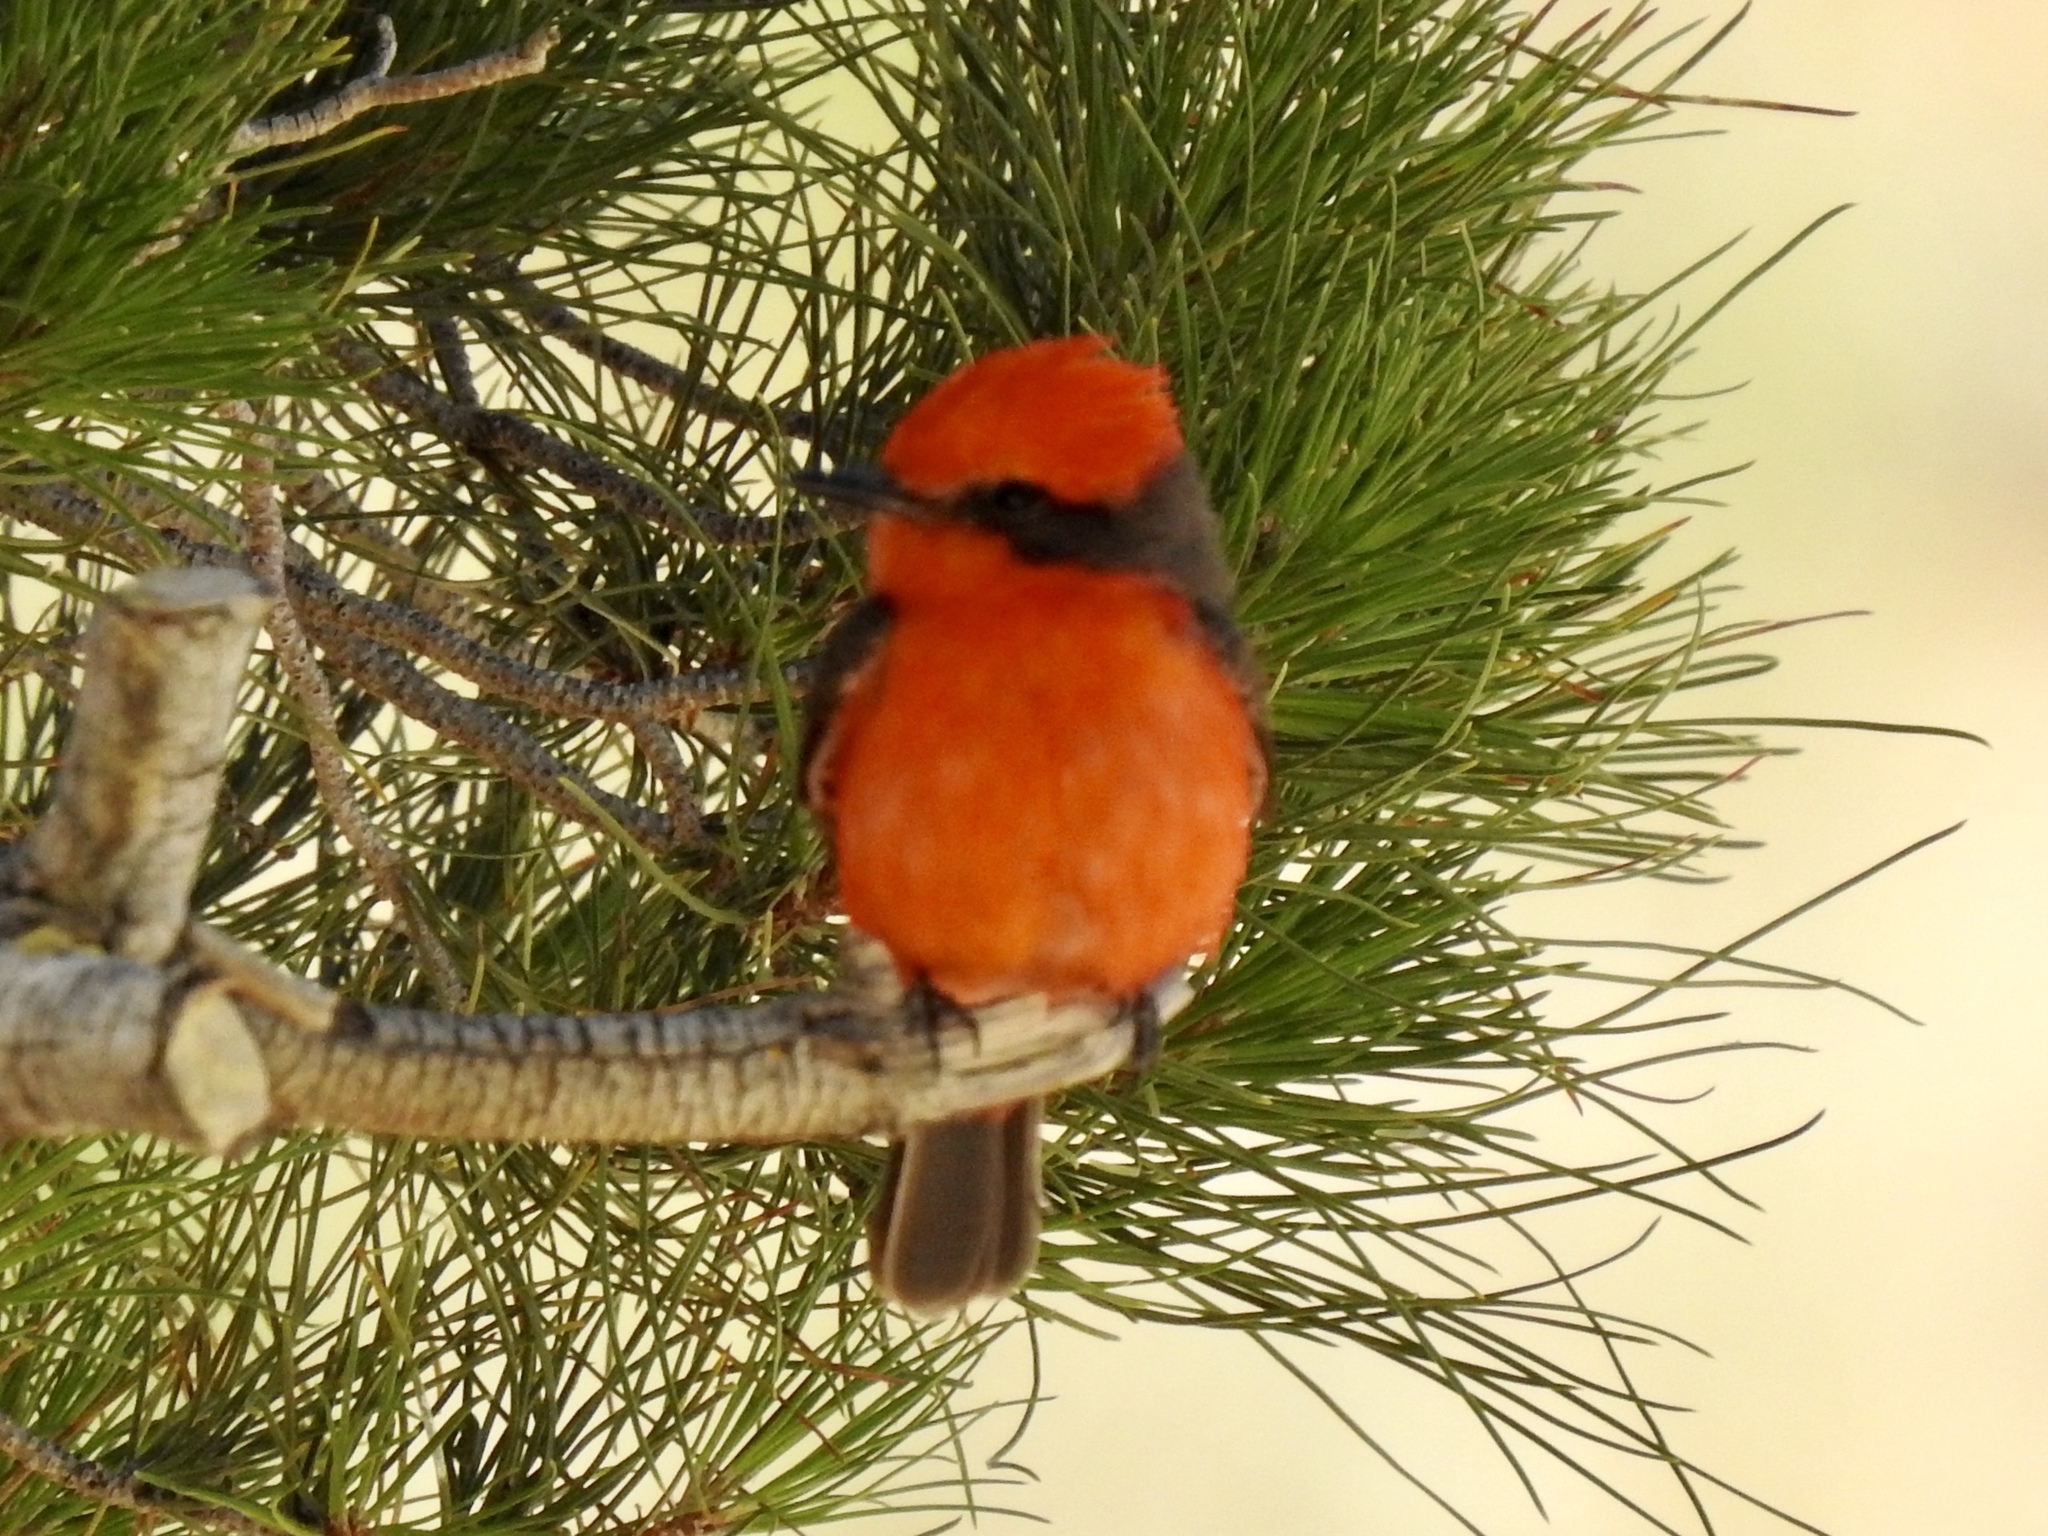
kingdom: Animalia
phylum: Chordata
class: Aves
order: Passeriformes
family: Tyrannidae
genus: Pyrocephalus
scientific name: Pyrocephalus rubinus
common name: Vermilion flycatcher
